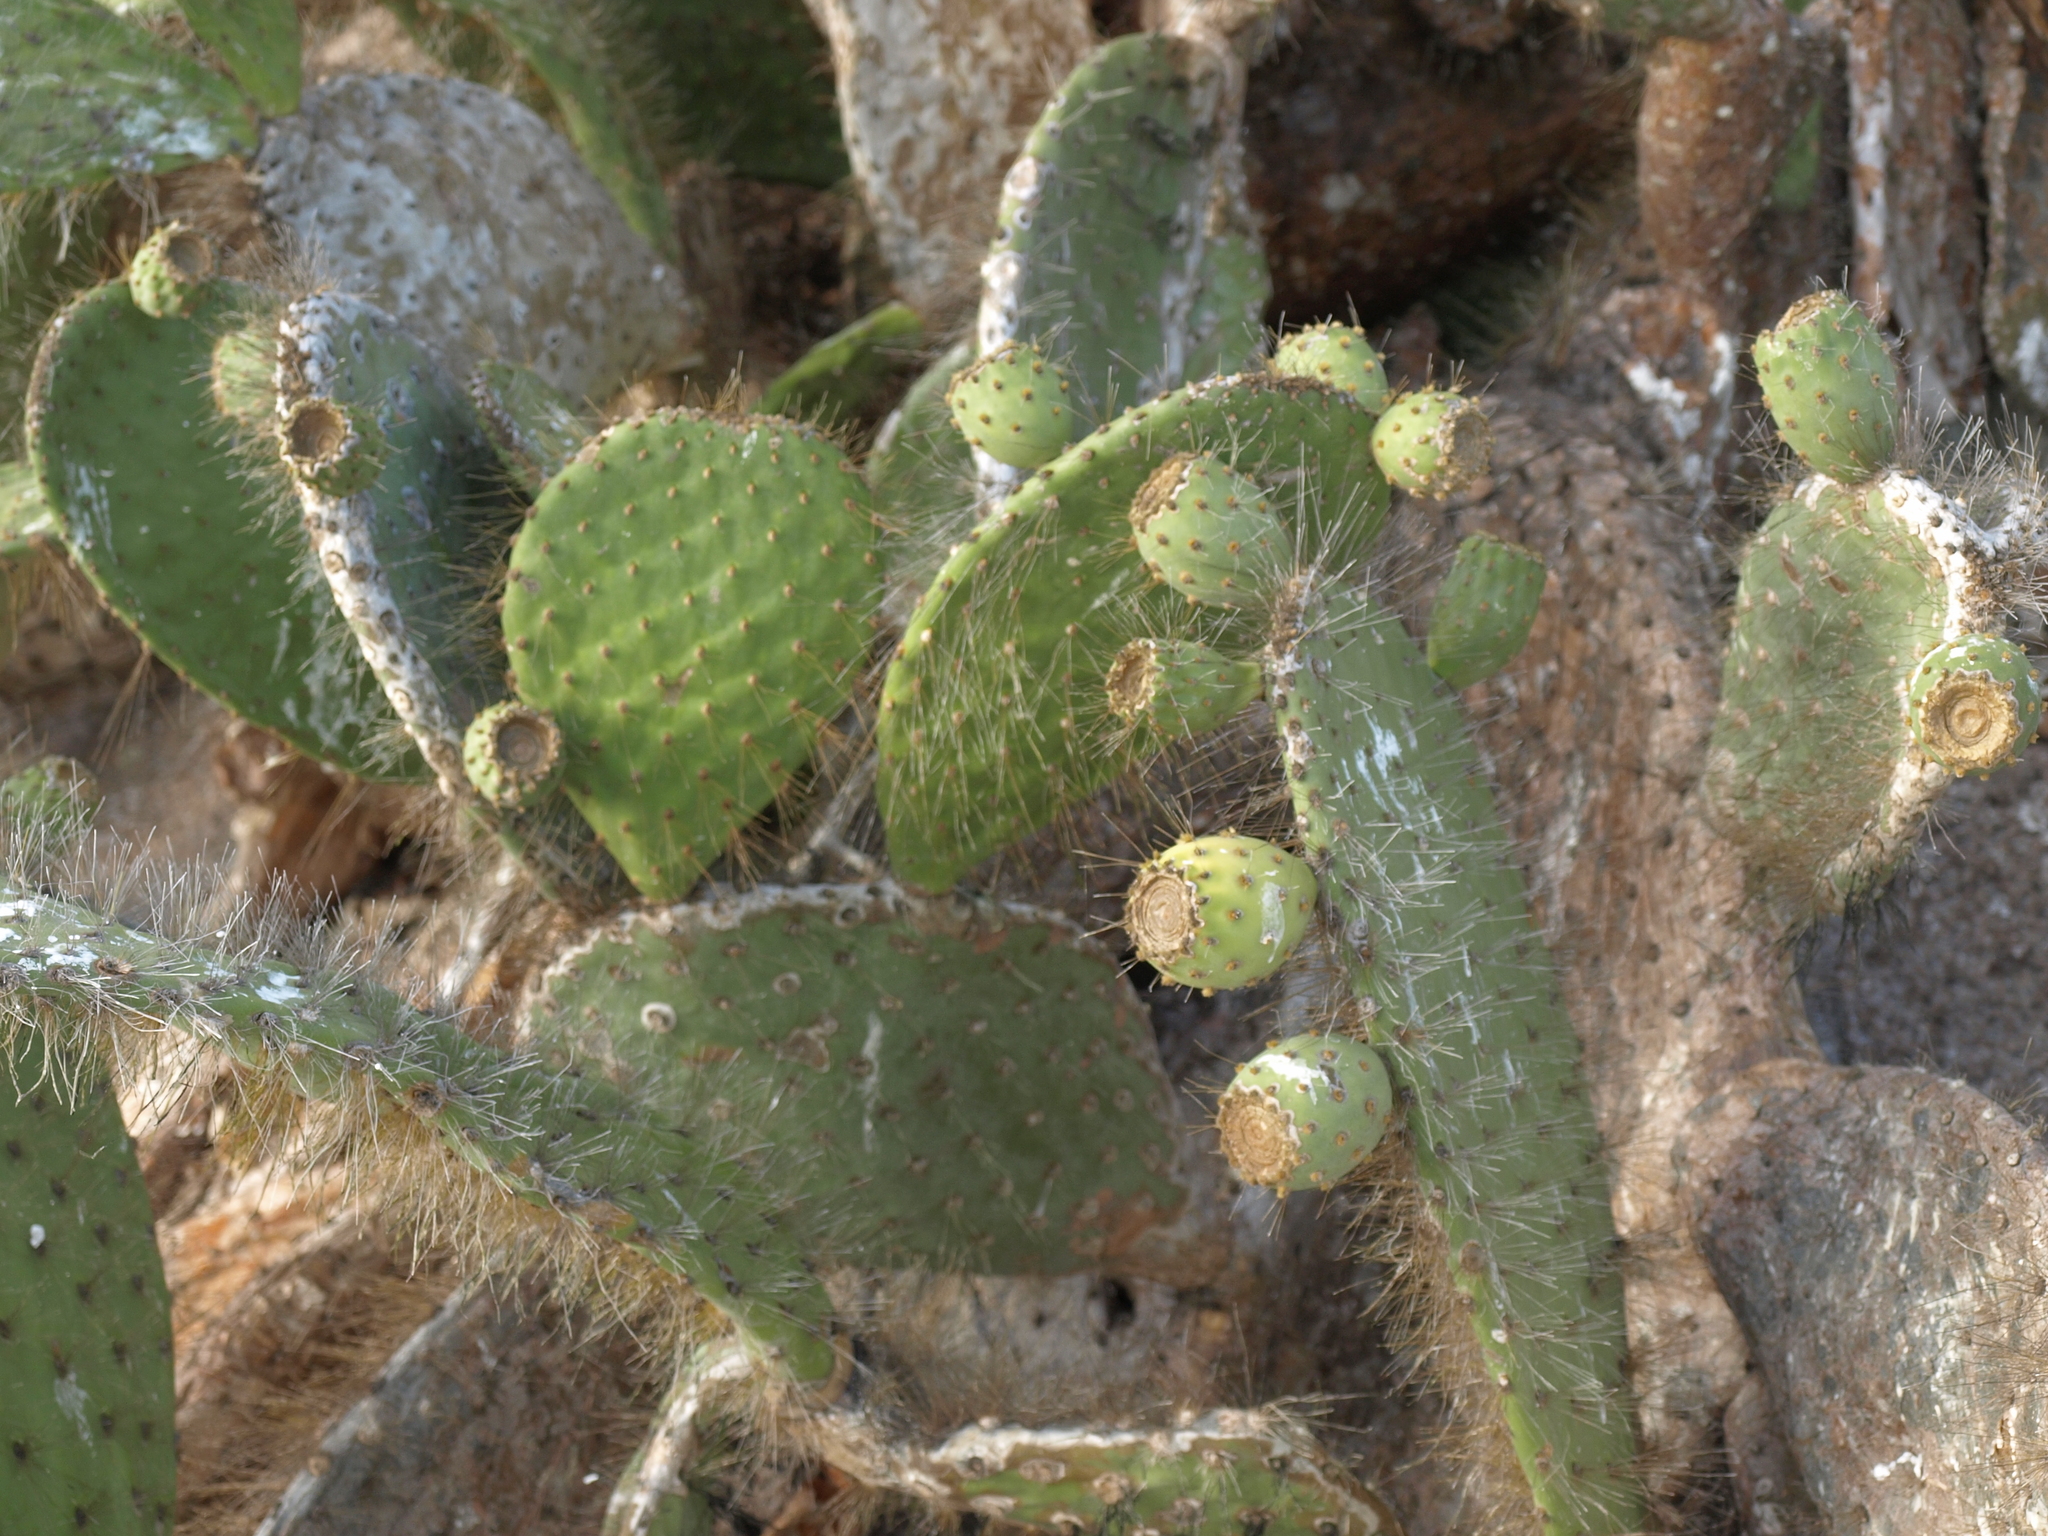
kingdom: Plantae
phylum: Tracheophyta
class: Magnoliopsida
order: Caryophyllales
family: Cactaceae
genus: Opuntia
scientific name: Opuntia galapageia
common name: Galápagos prickly pear
